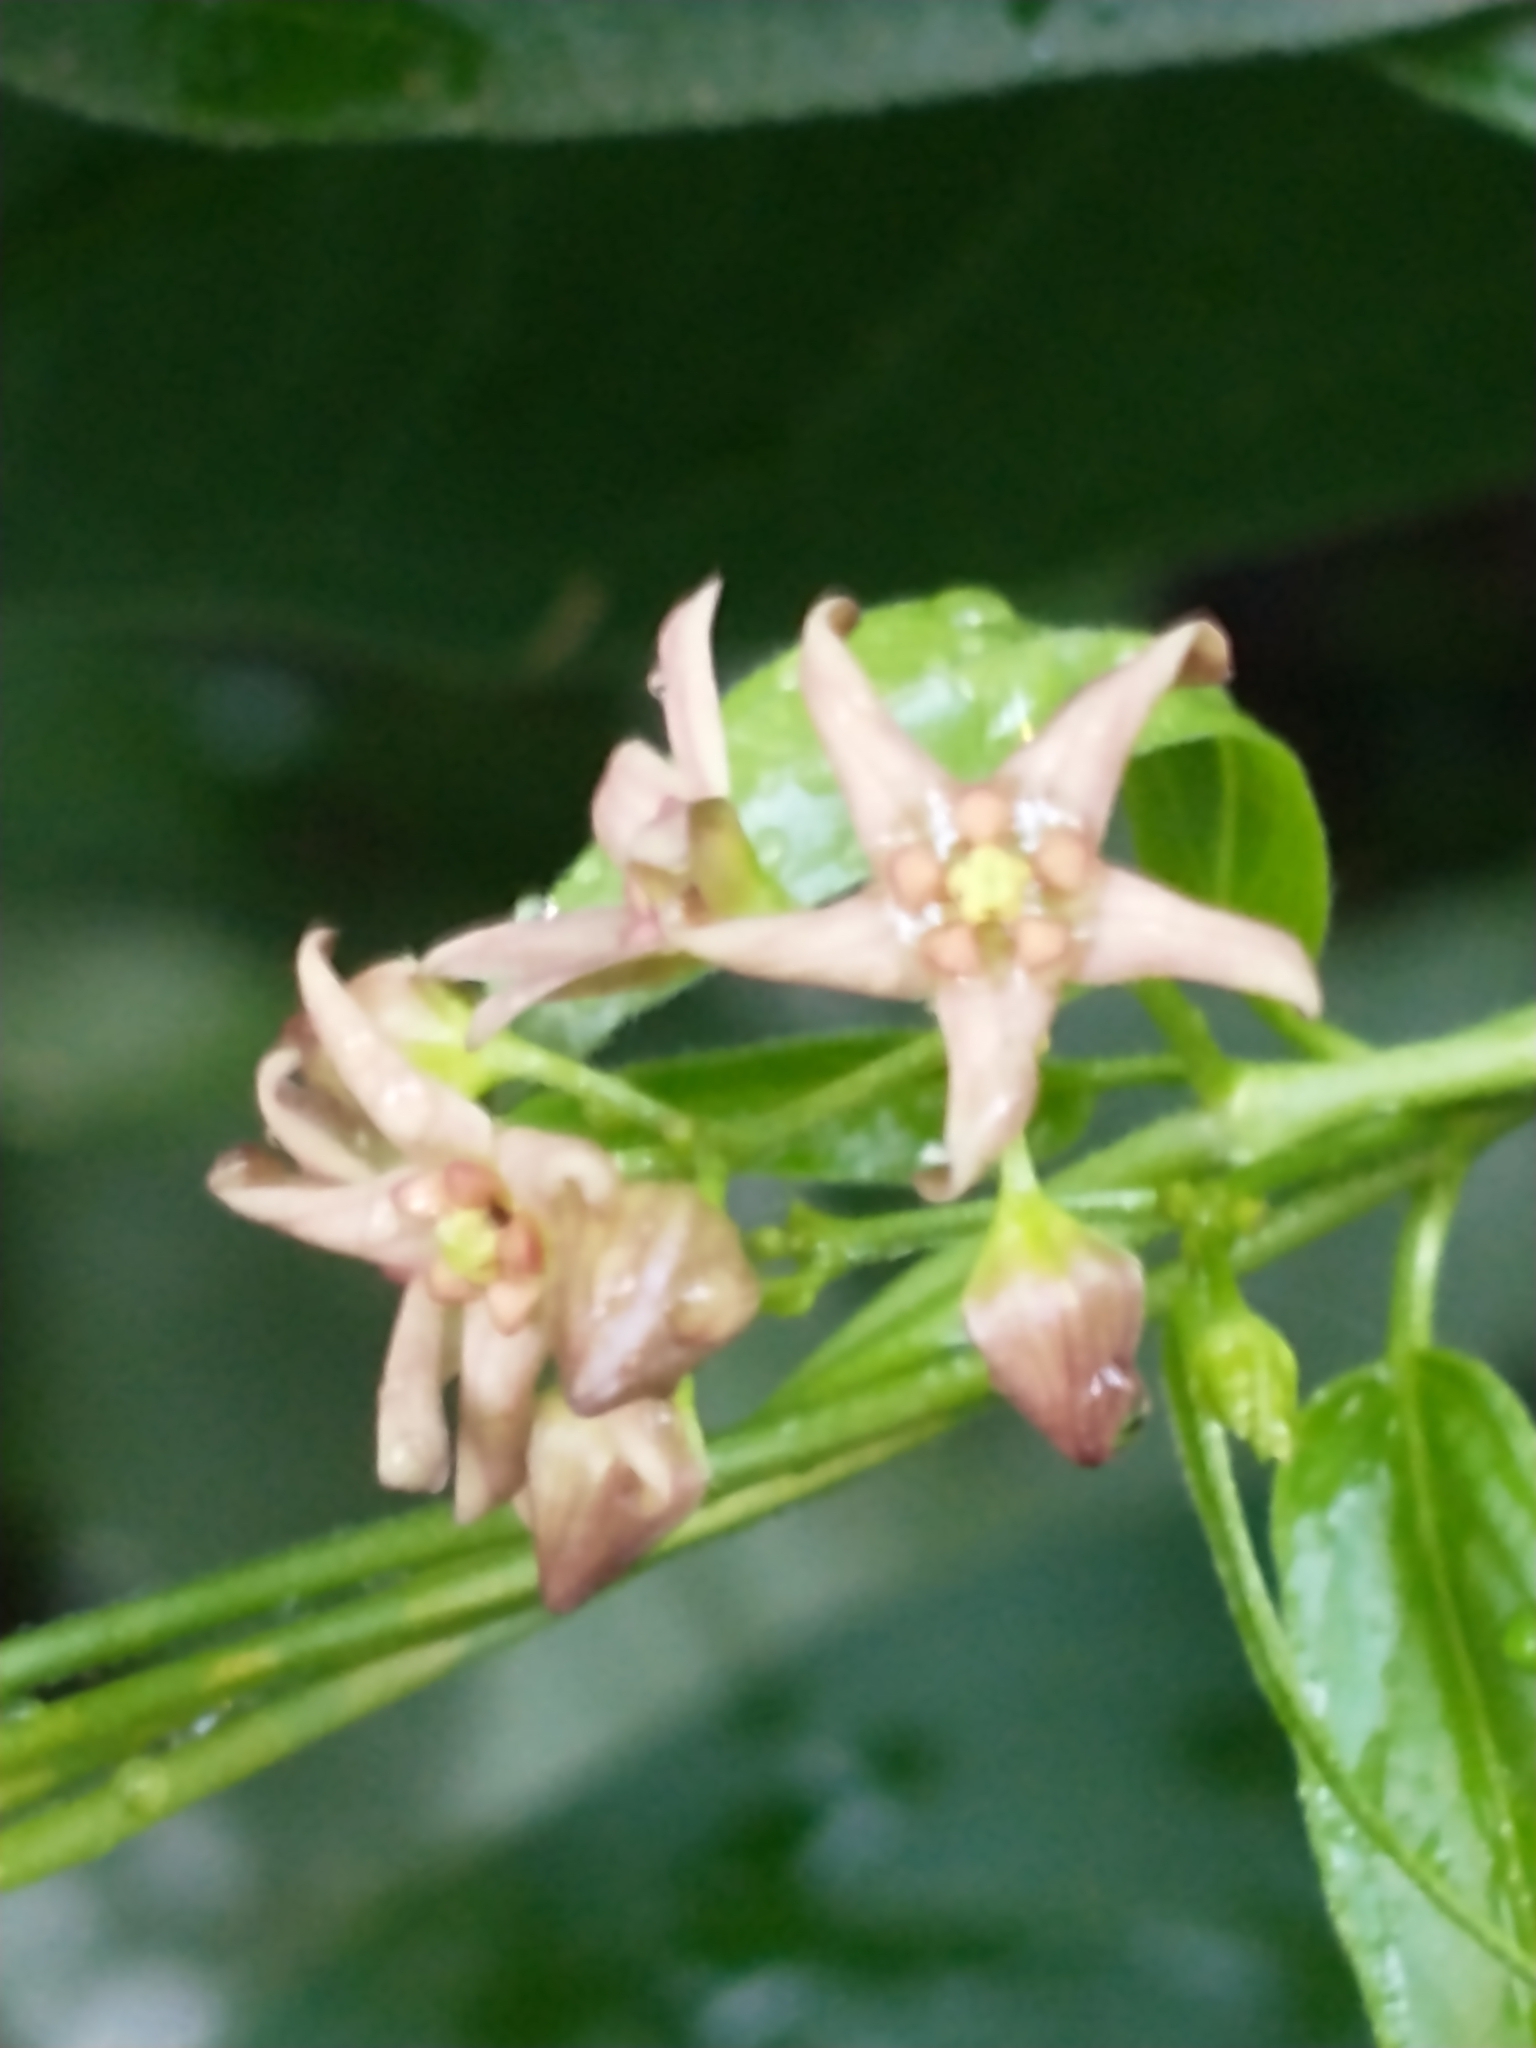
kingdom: Plantae
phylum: Tracheophyta
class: Magnoliopsida
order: Gentianales
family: Apocynaceae
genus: Vincetoxicum
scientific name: Vincetoxicum rossicum
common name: Dog-strangling vine
